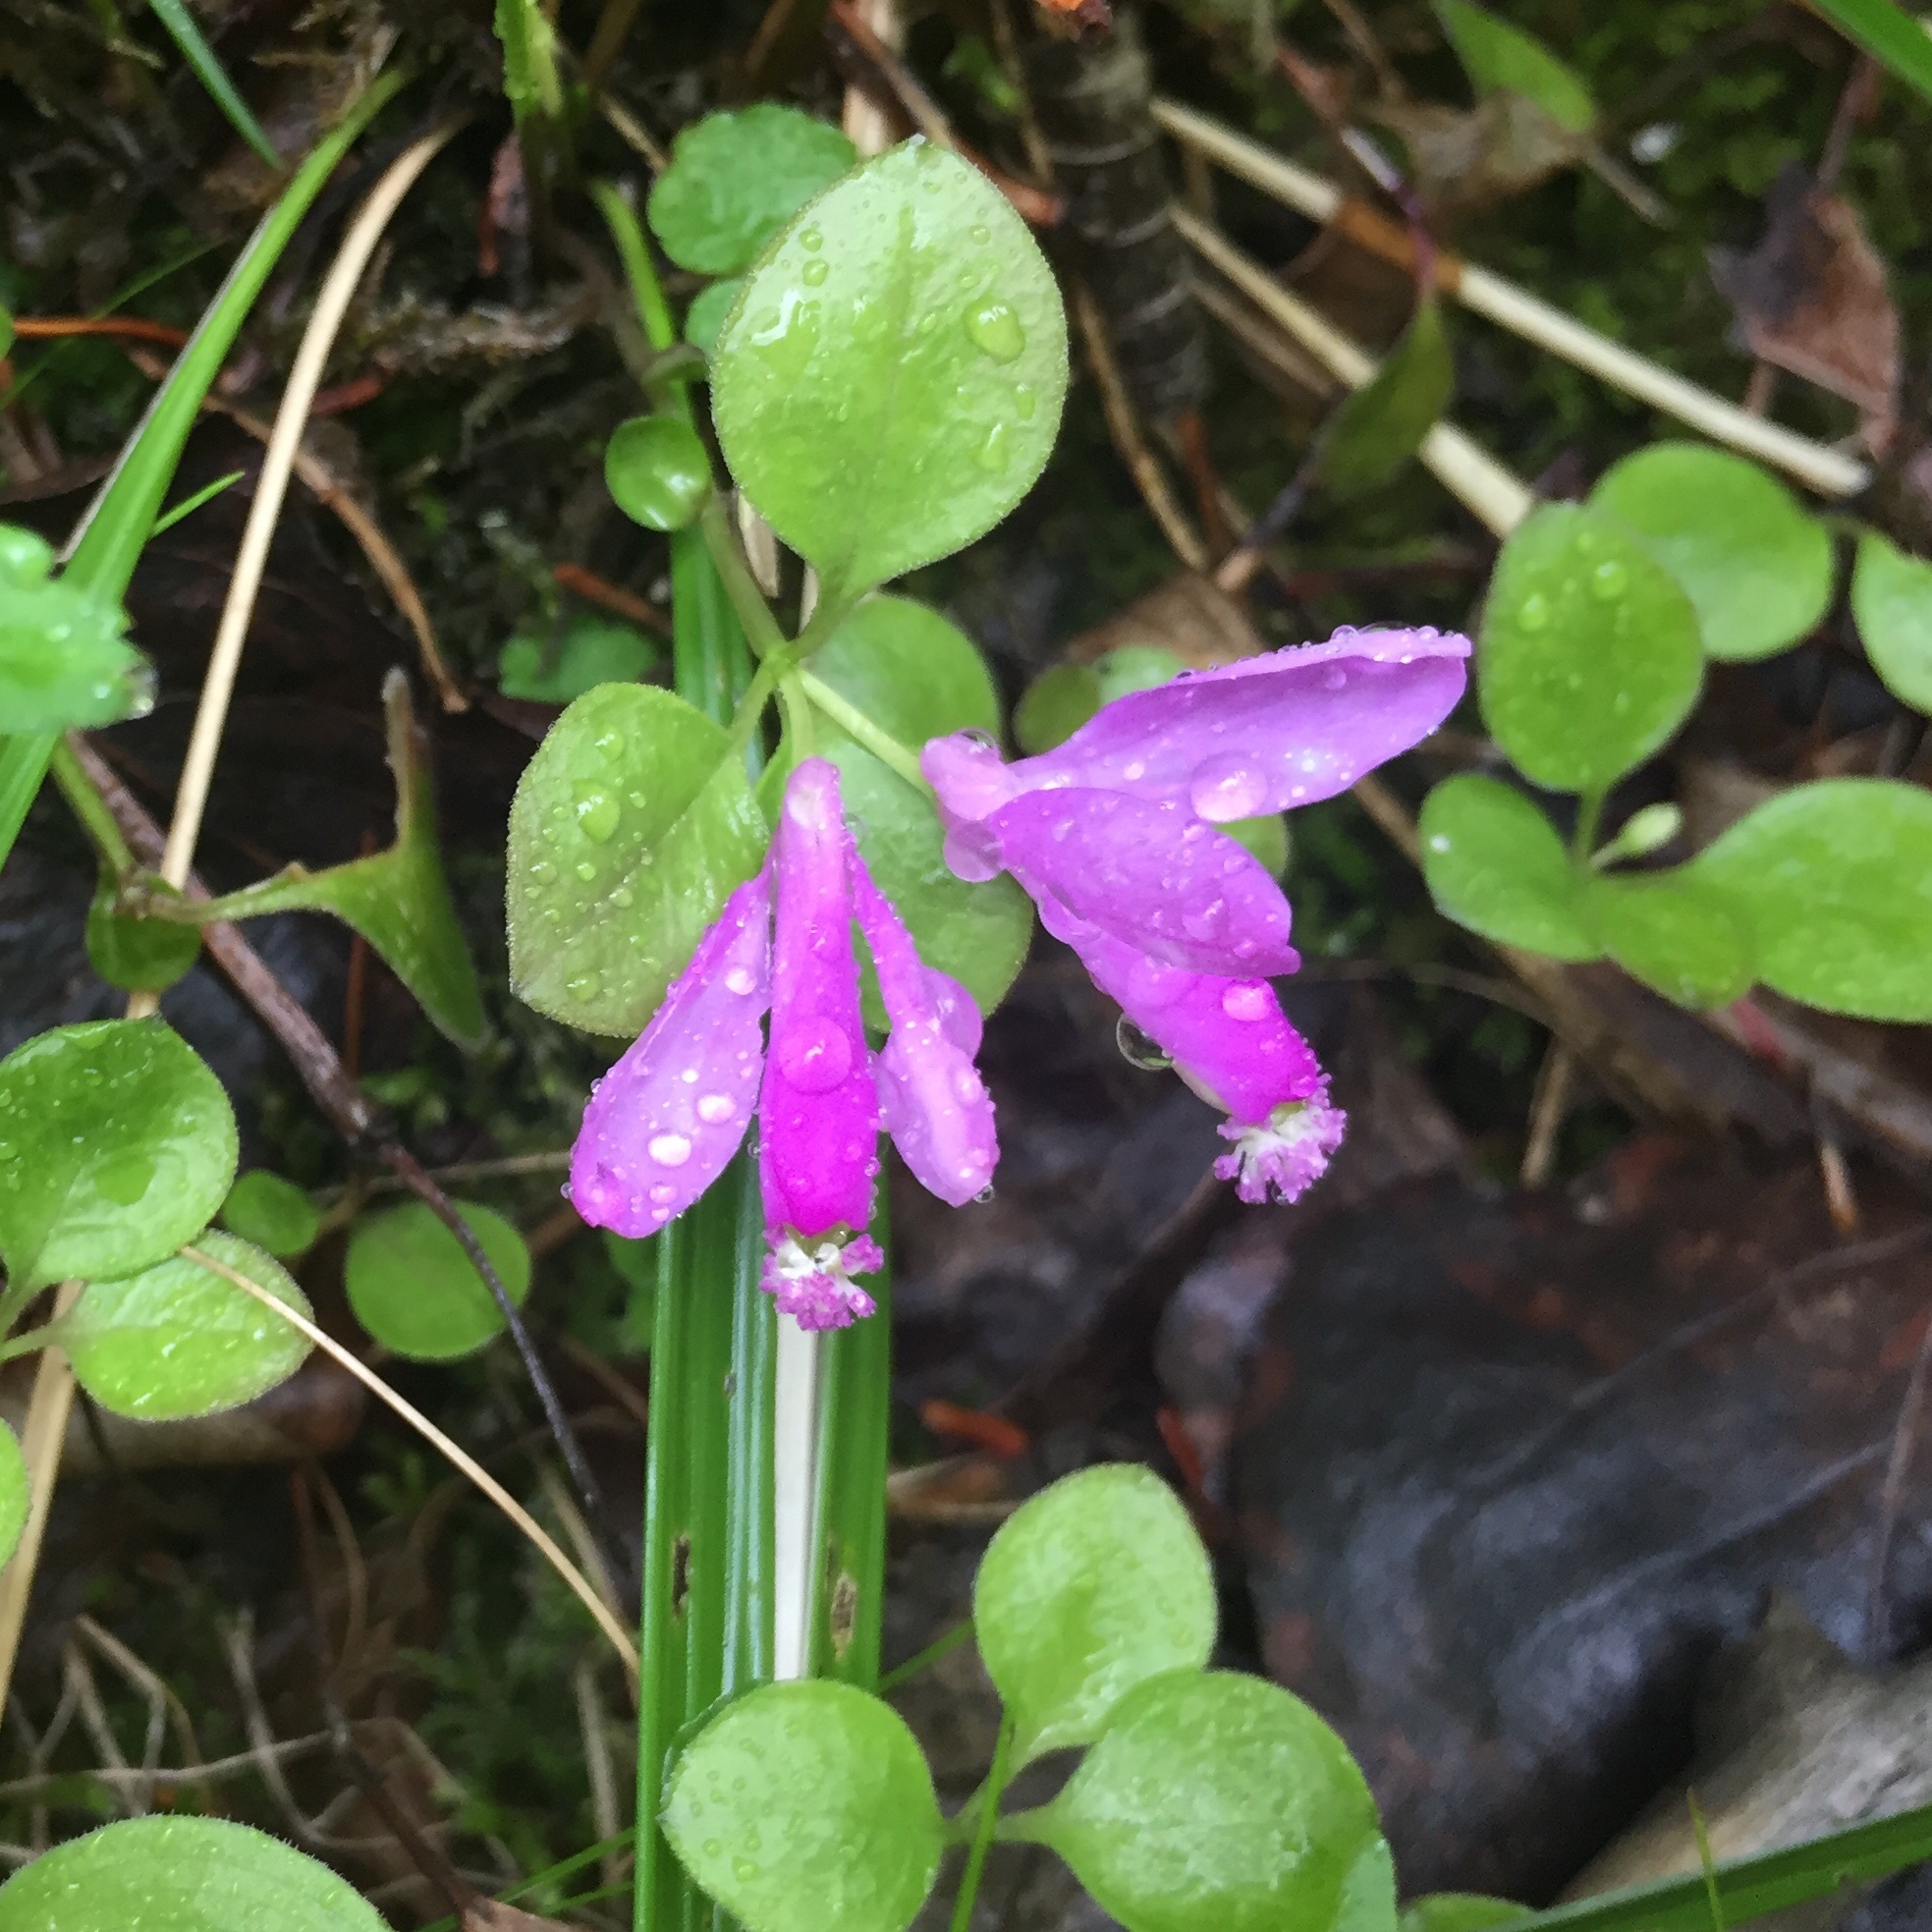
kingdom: Plantae
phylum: Tracheophyta
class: Magnoliopsida
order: Fabales
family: Polygalaceae
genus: Polygaloides
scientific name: Polygaloides paucifolia
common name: Bird-on-the-wing
